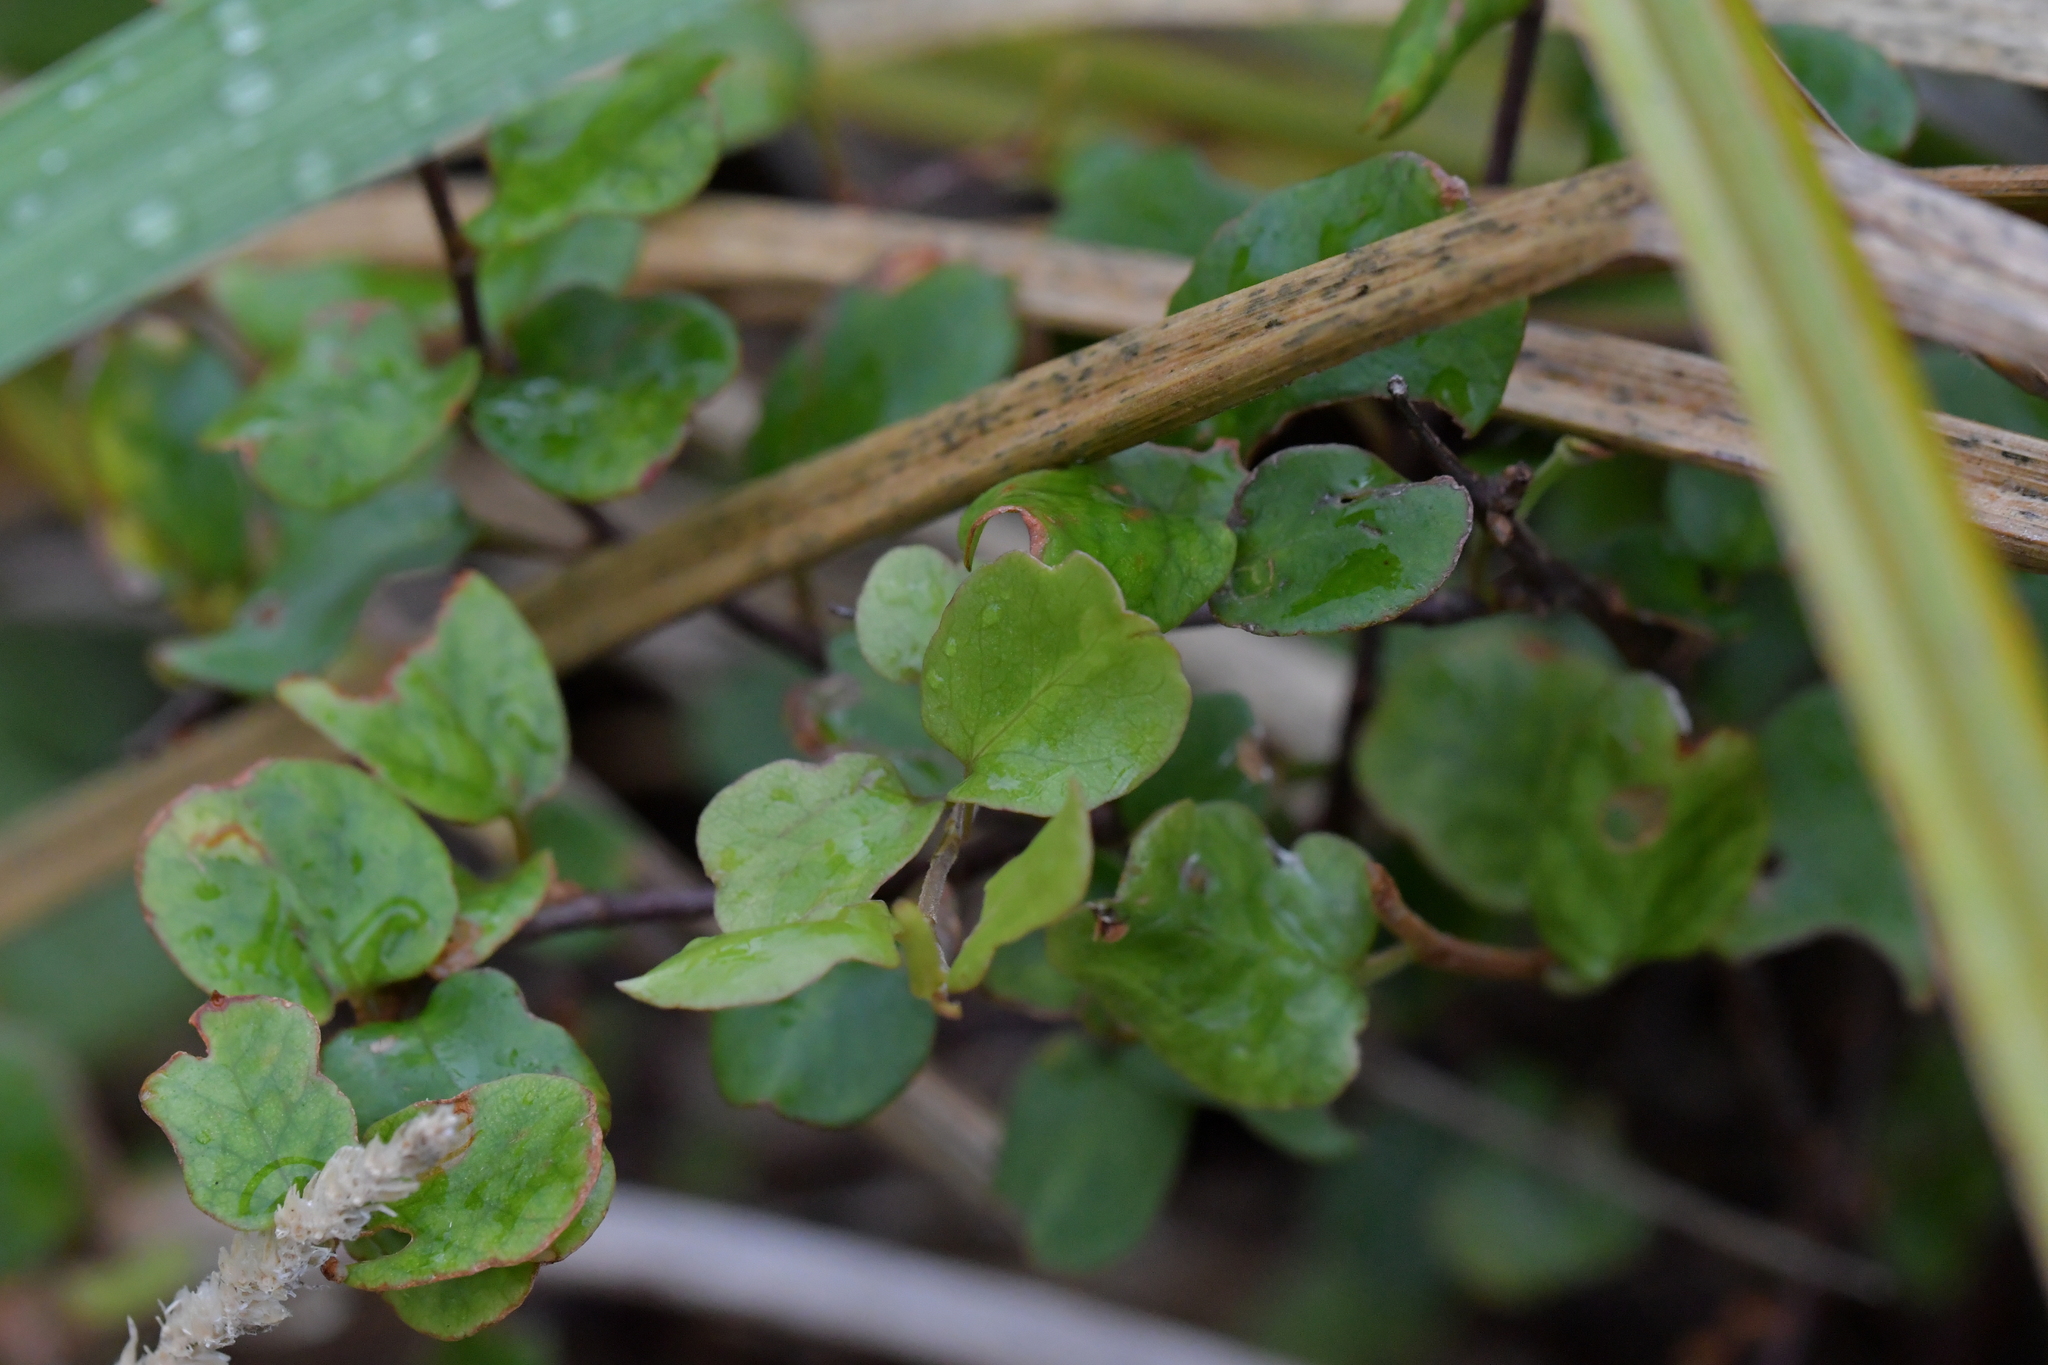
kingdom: Plantae
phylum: Tracheophyta
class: Magnoliopsida
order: Caryophyllales
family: Polygonaceae
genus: Muehlenbeckia
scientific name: Muehlenbeckia complexa
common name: Wireplant
